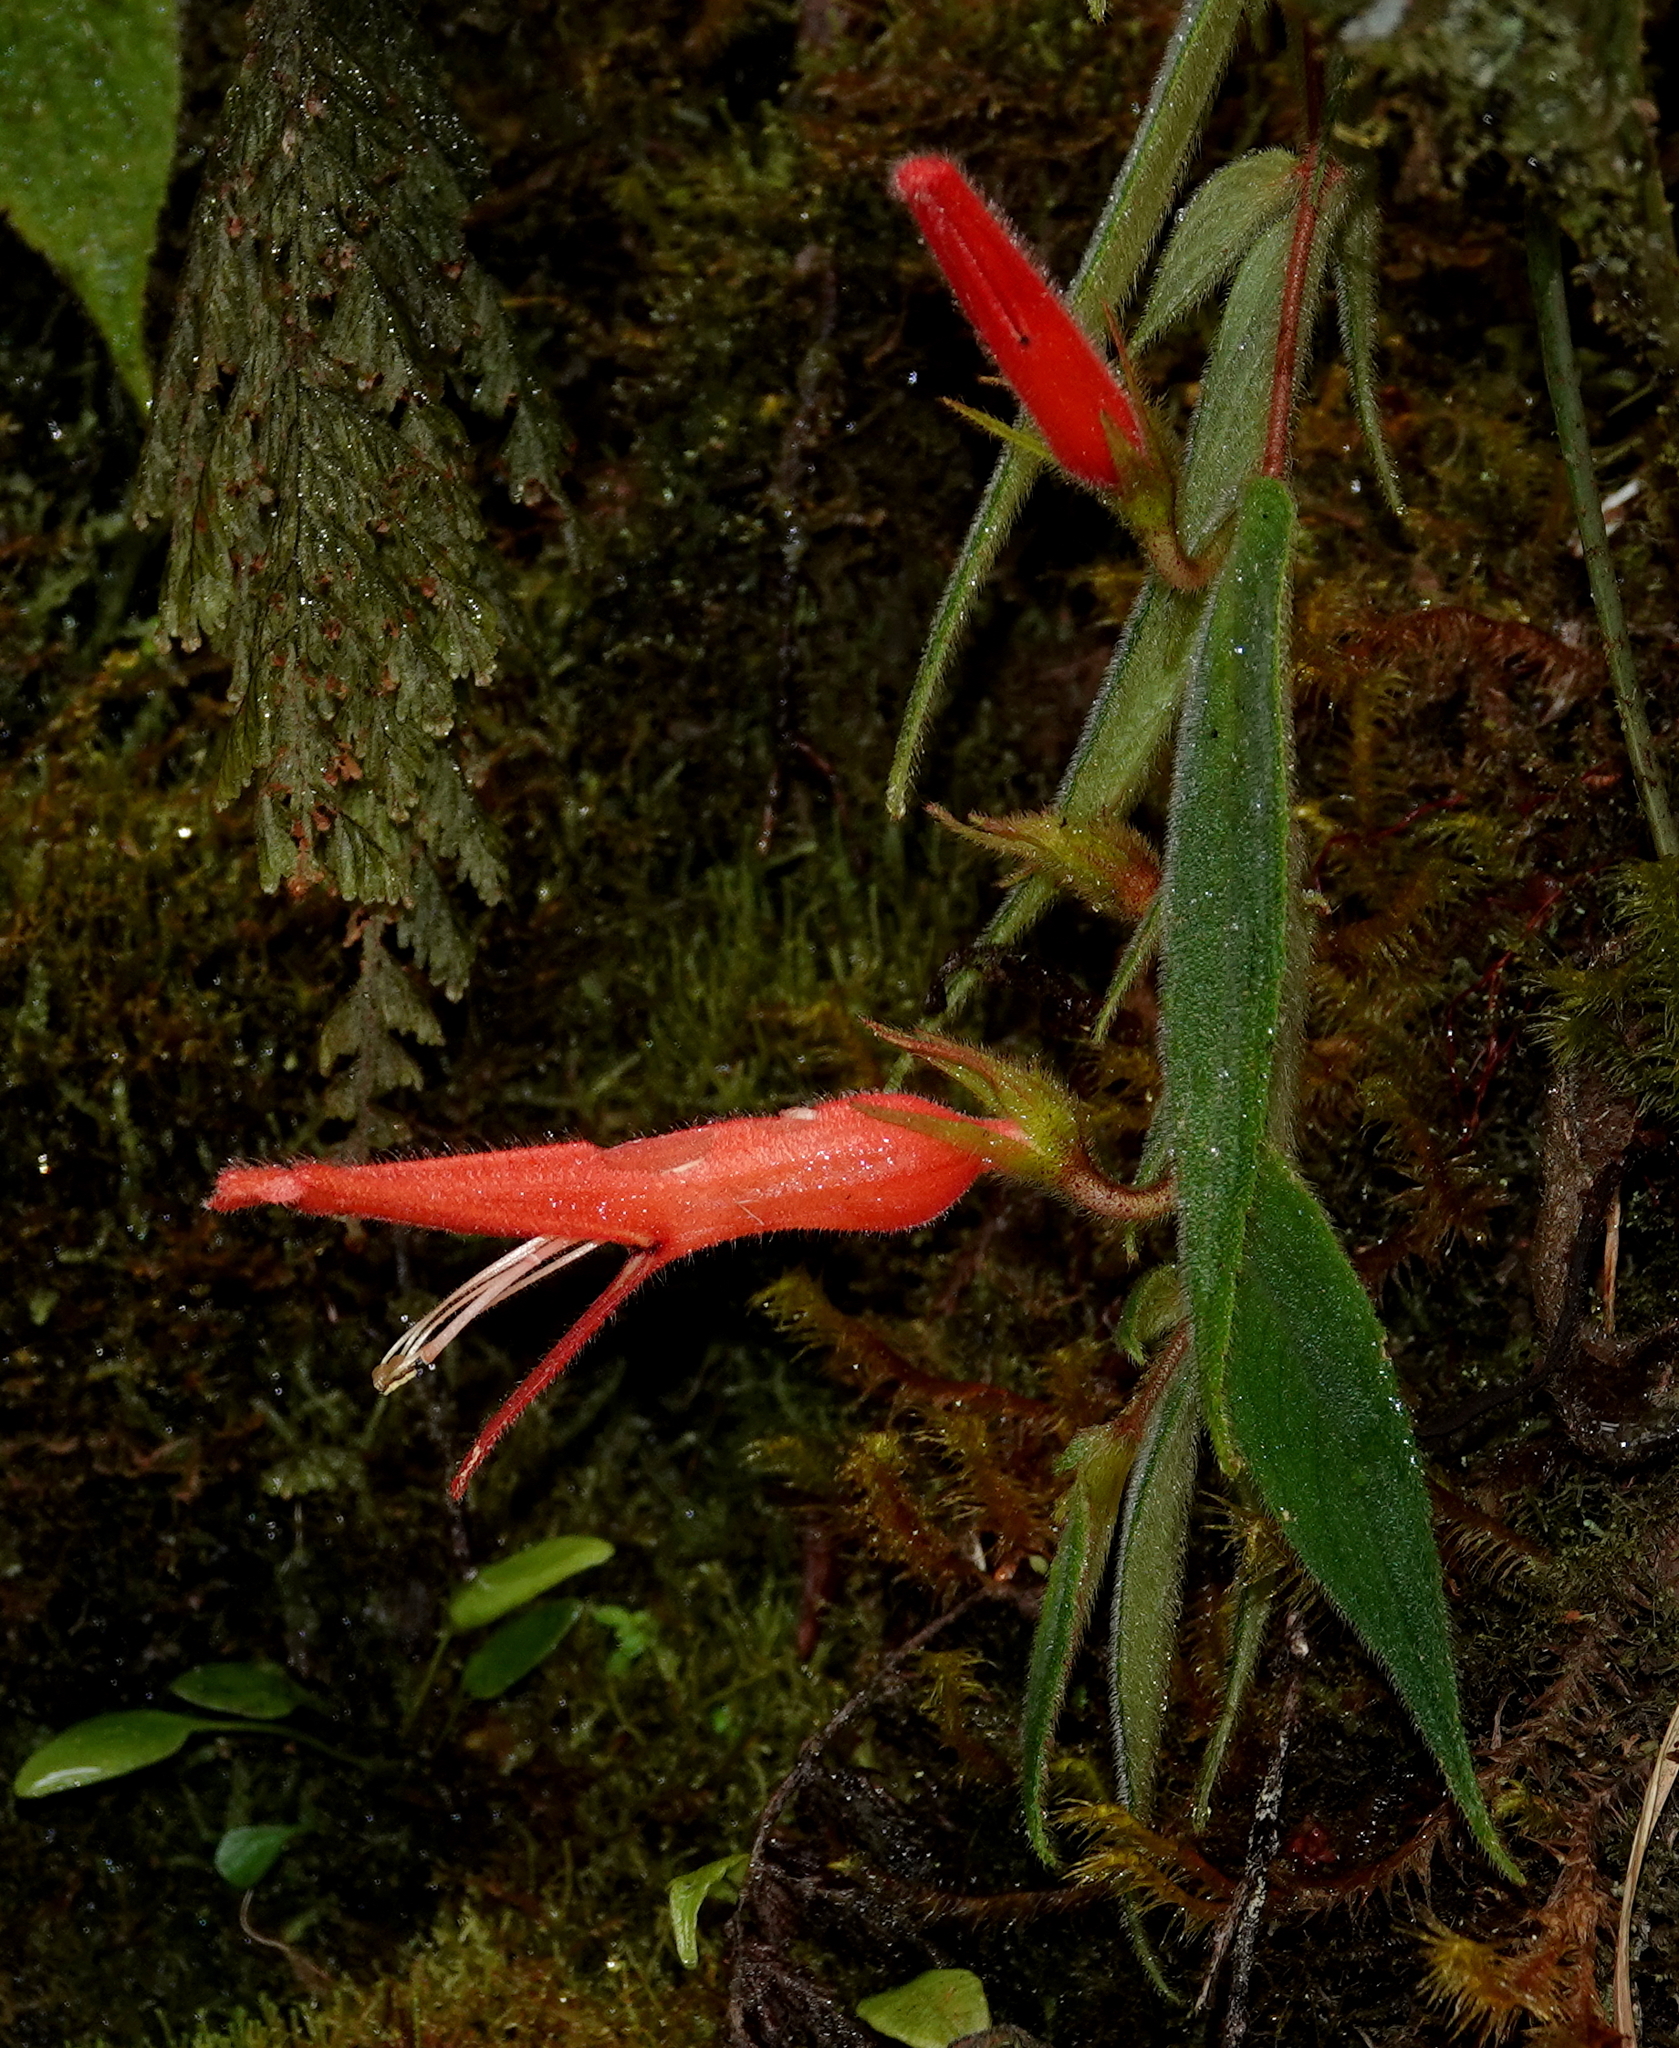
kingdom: Plantae
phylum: Tracheophyta
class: Magnoliopsida
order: Lamiales
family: Gesneriaceae
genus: Columnea
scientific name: Columnea ceticeps
